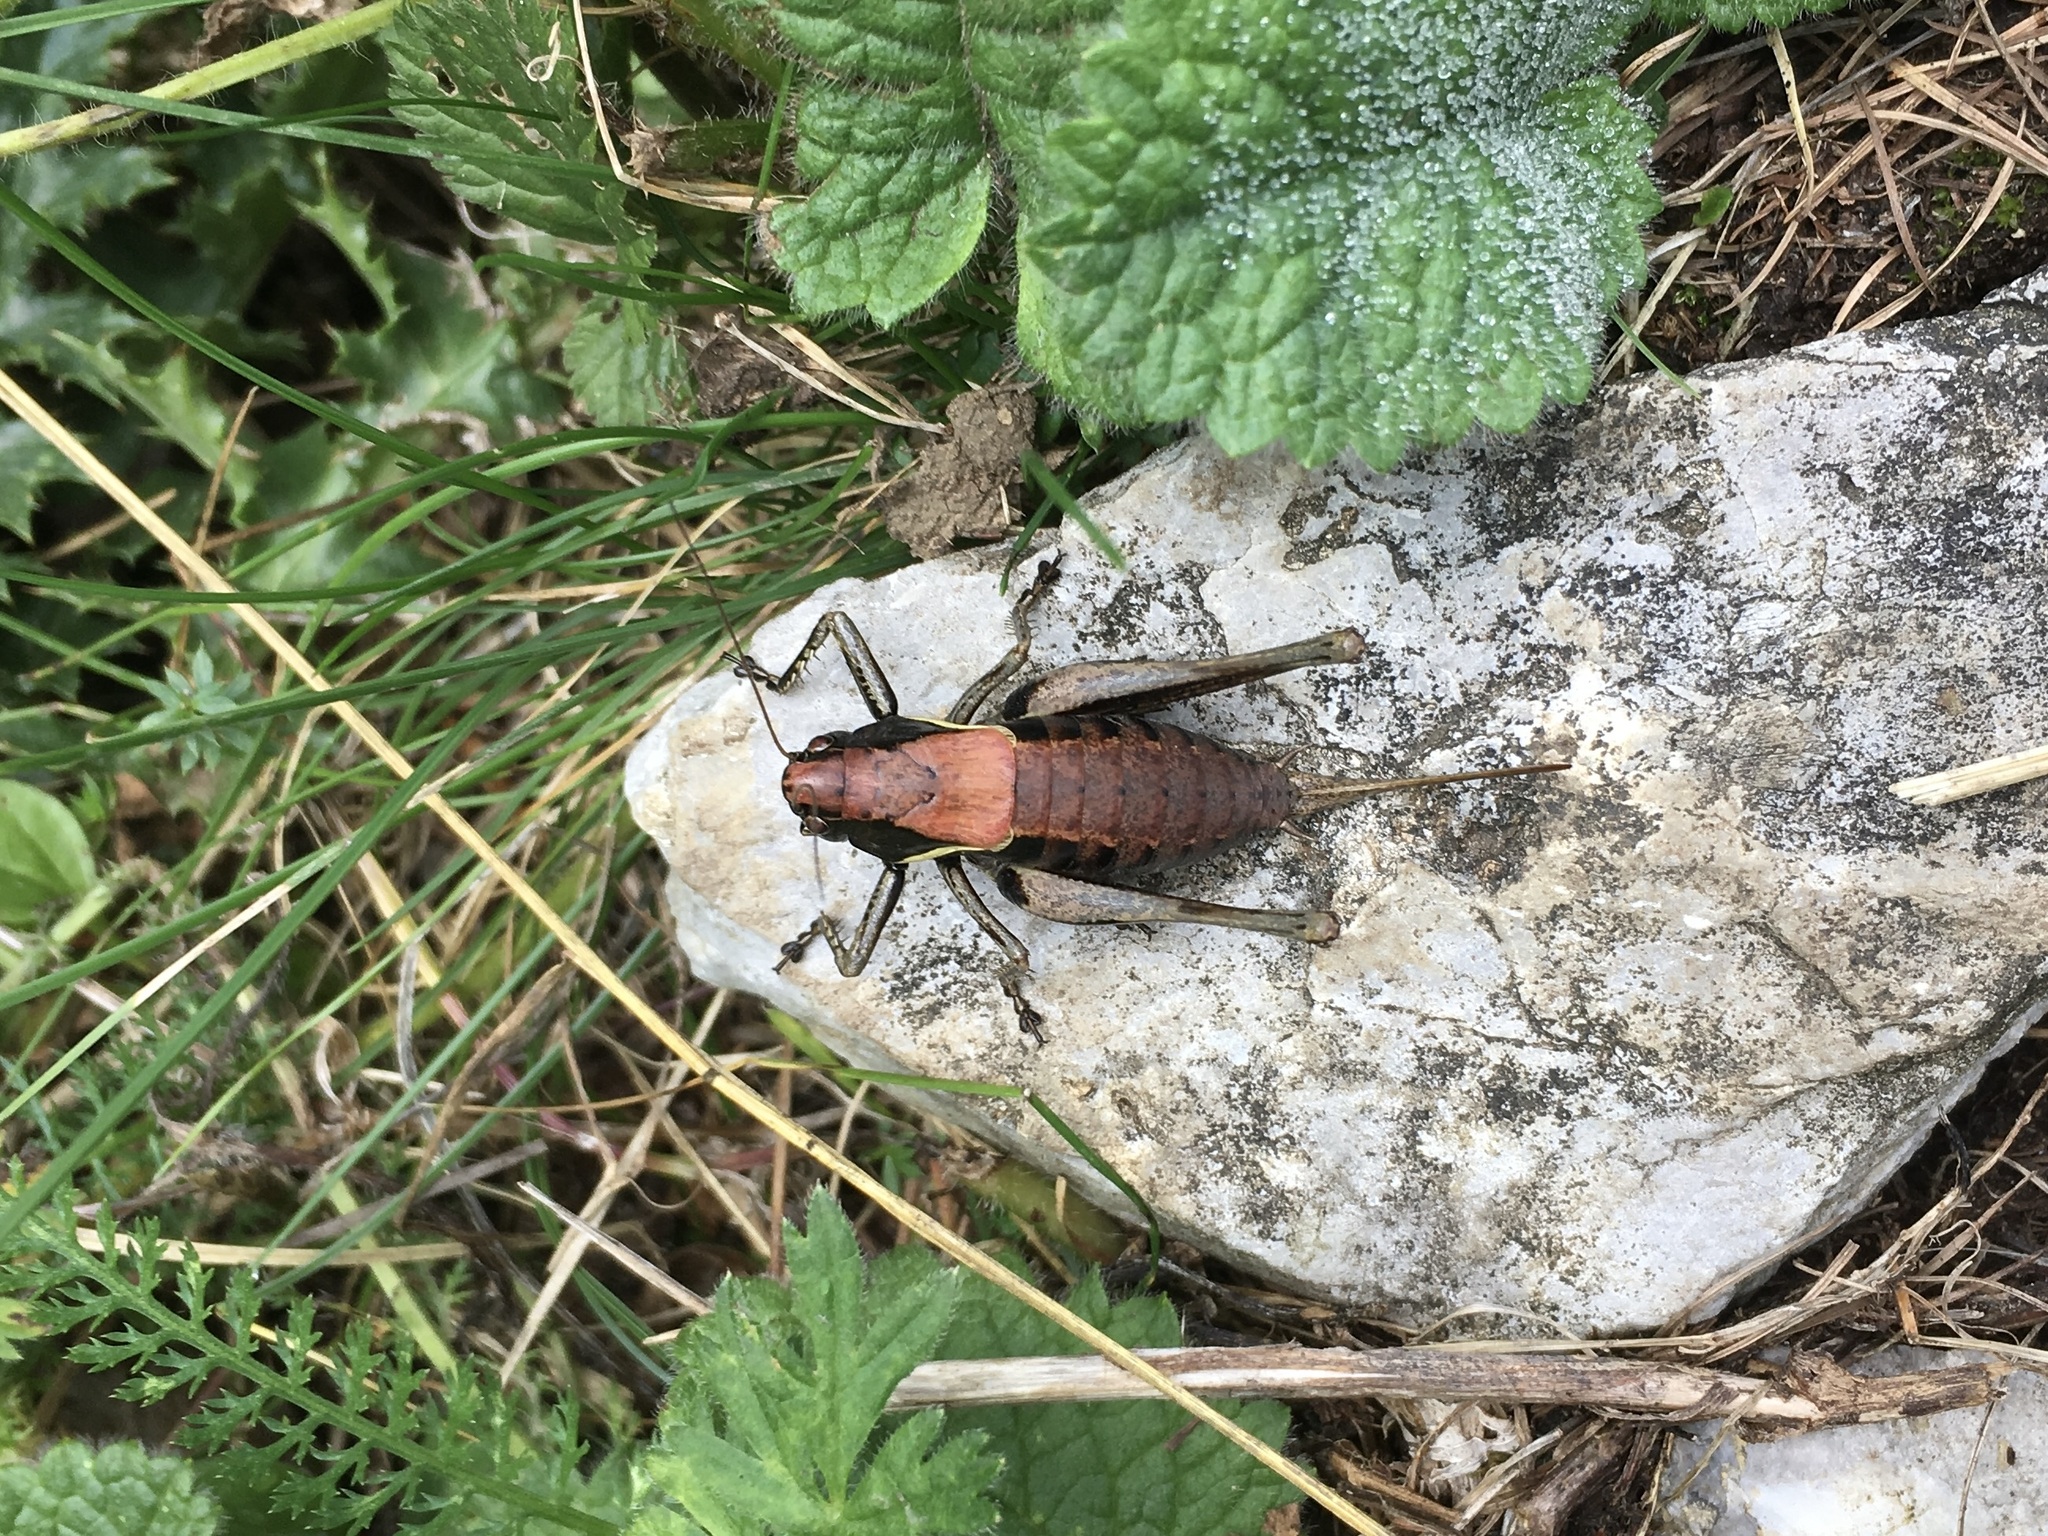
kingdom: Animalia
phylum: Arthropoda
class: Insecta
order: Orthoptera
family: Tettigoniidae
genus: Pholidoptera
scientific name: Pholidoptera aptera
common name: Alpine dark bush-cricket
